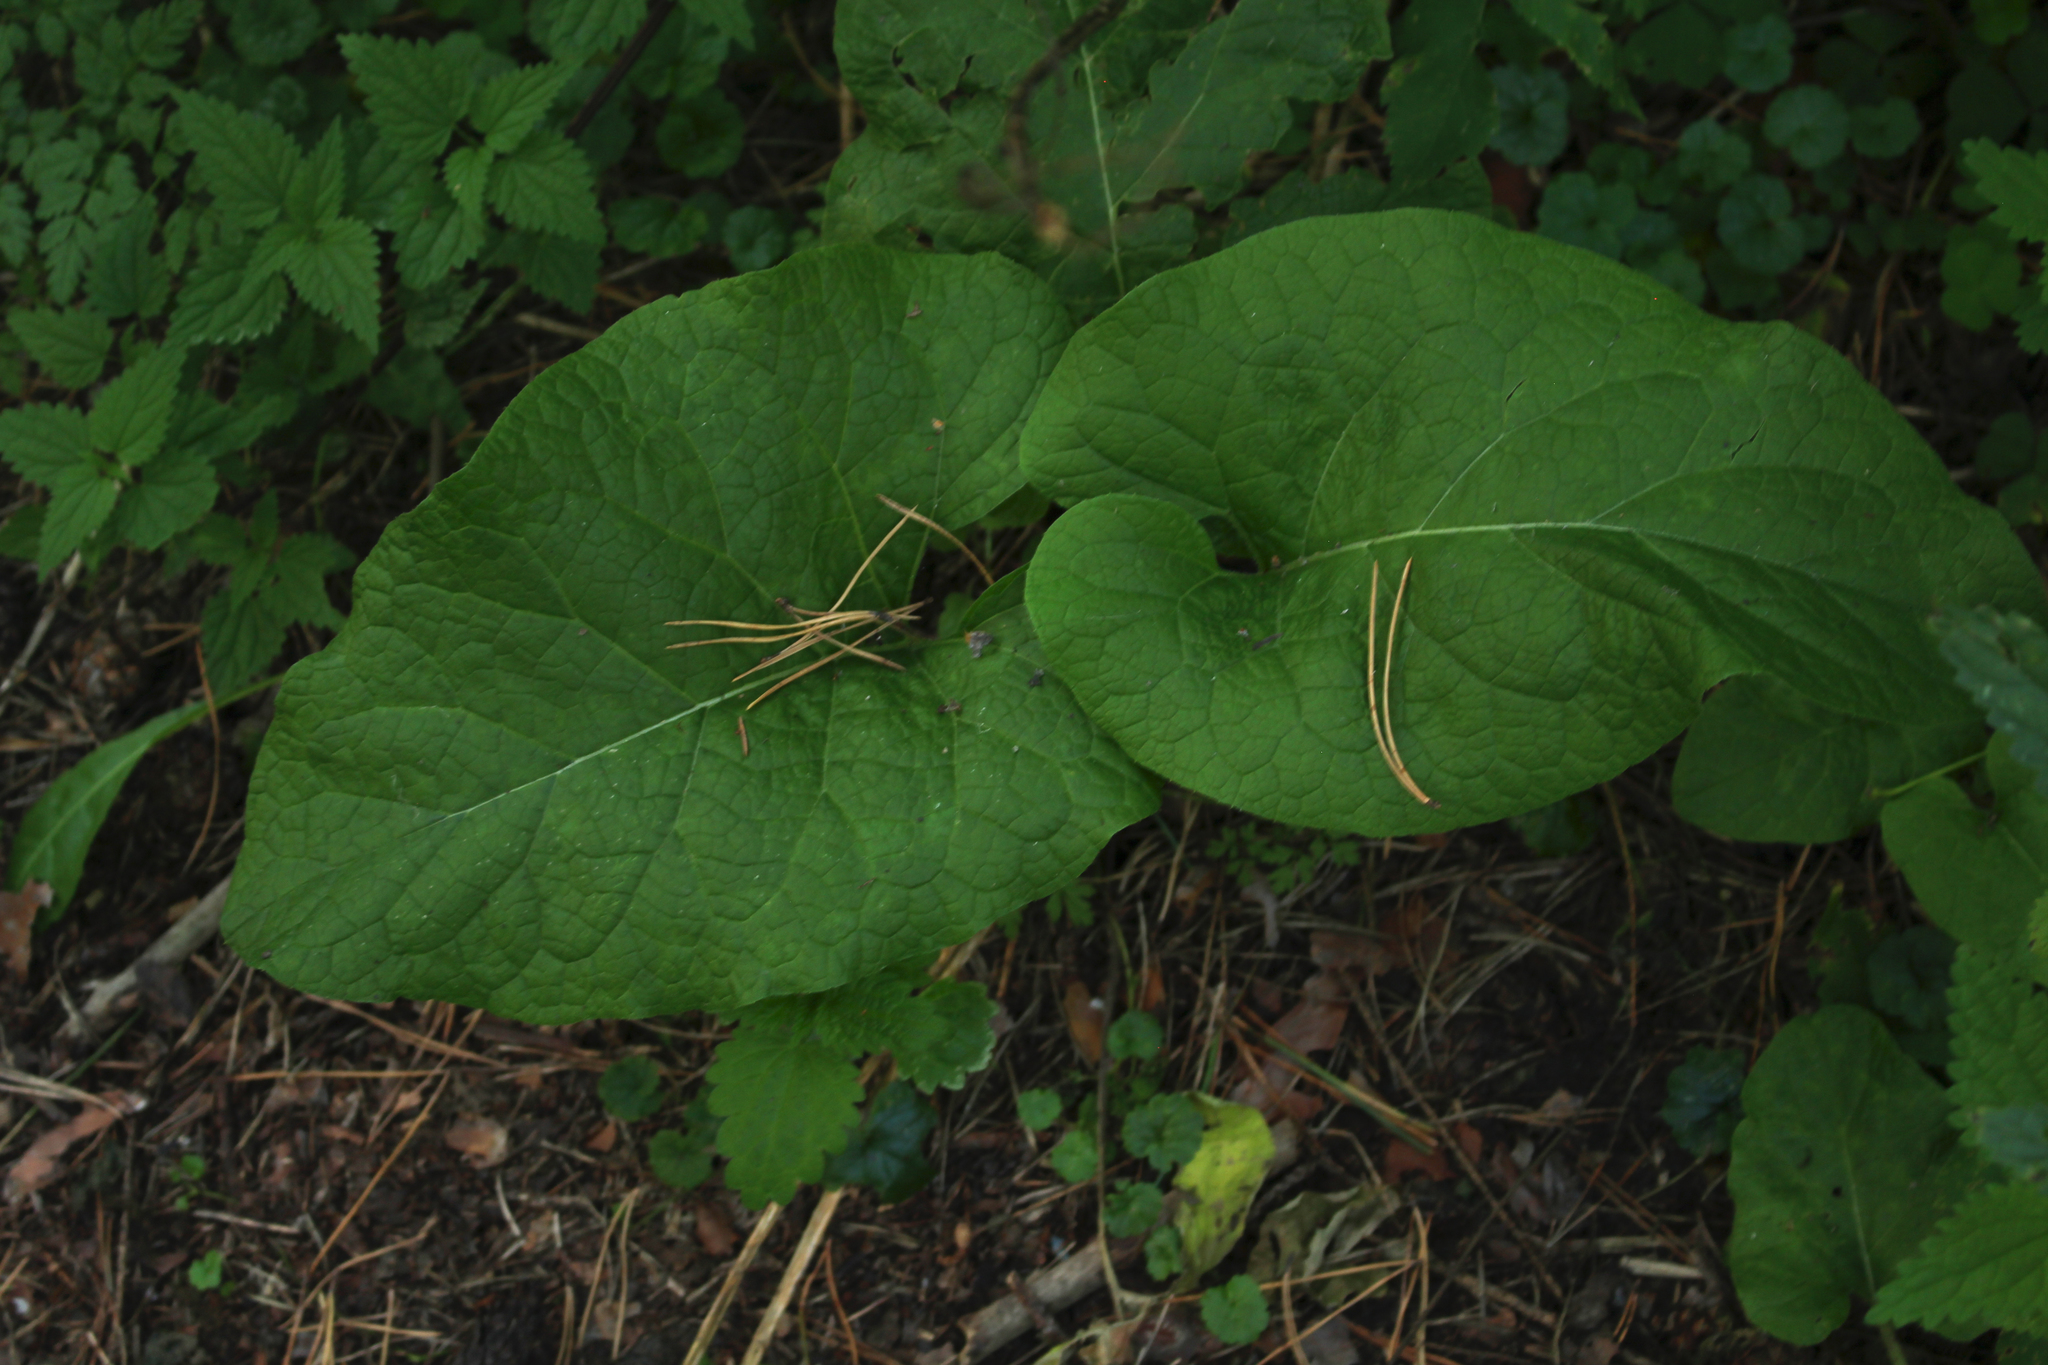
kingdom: Plantae
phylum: Tracheophyta
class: Magnoliopsida
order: Asterales
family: Asteraceae
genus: Arctium
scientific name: Arctium tomentosum
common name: Woolly burdock
